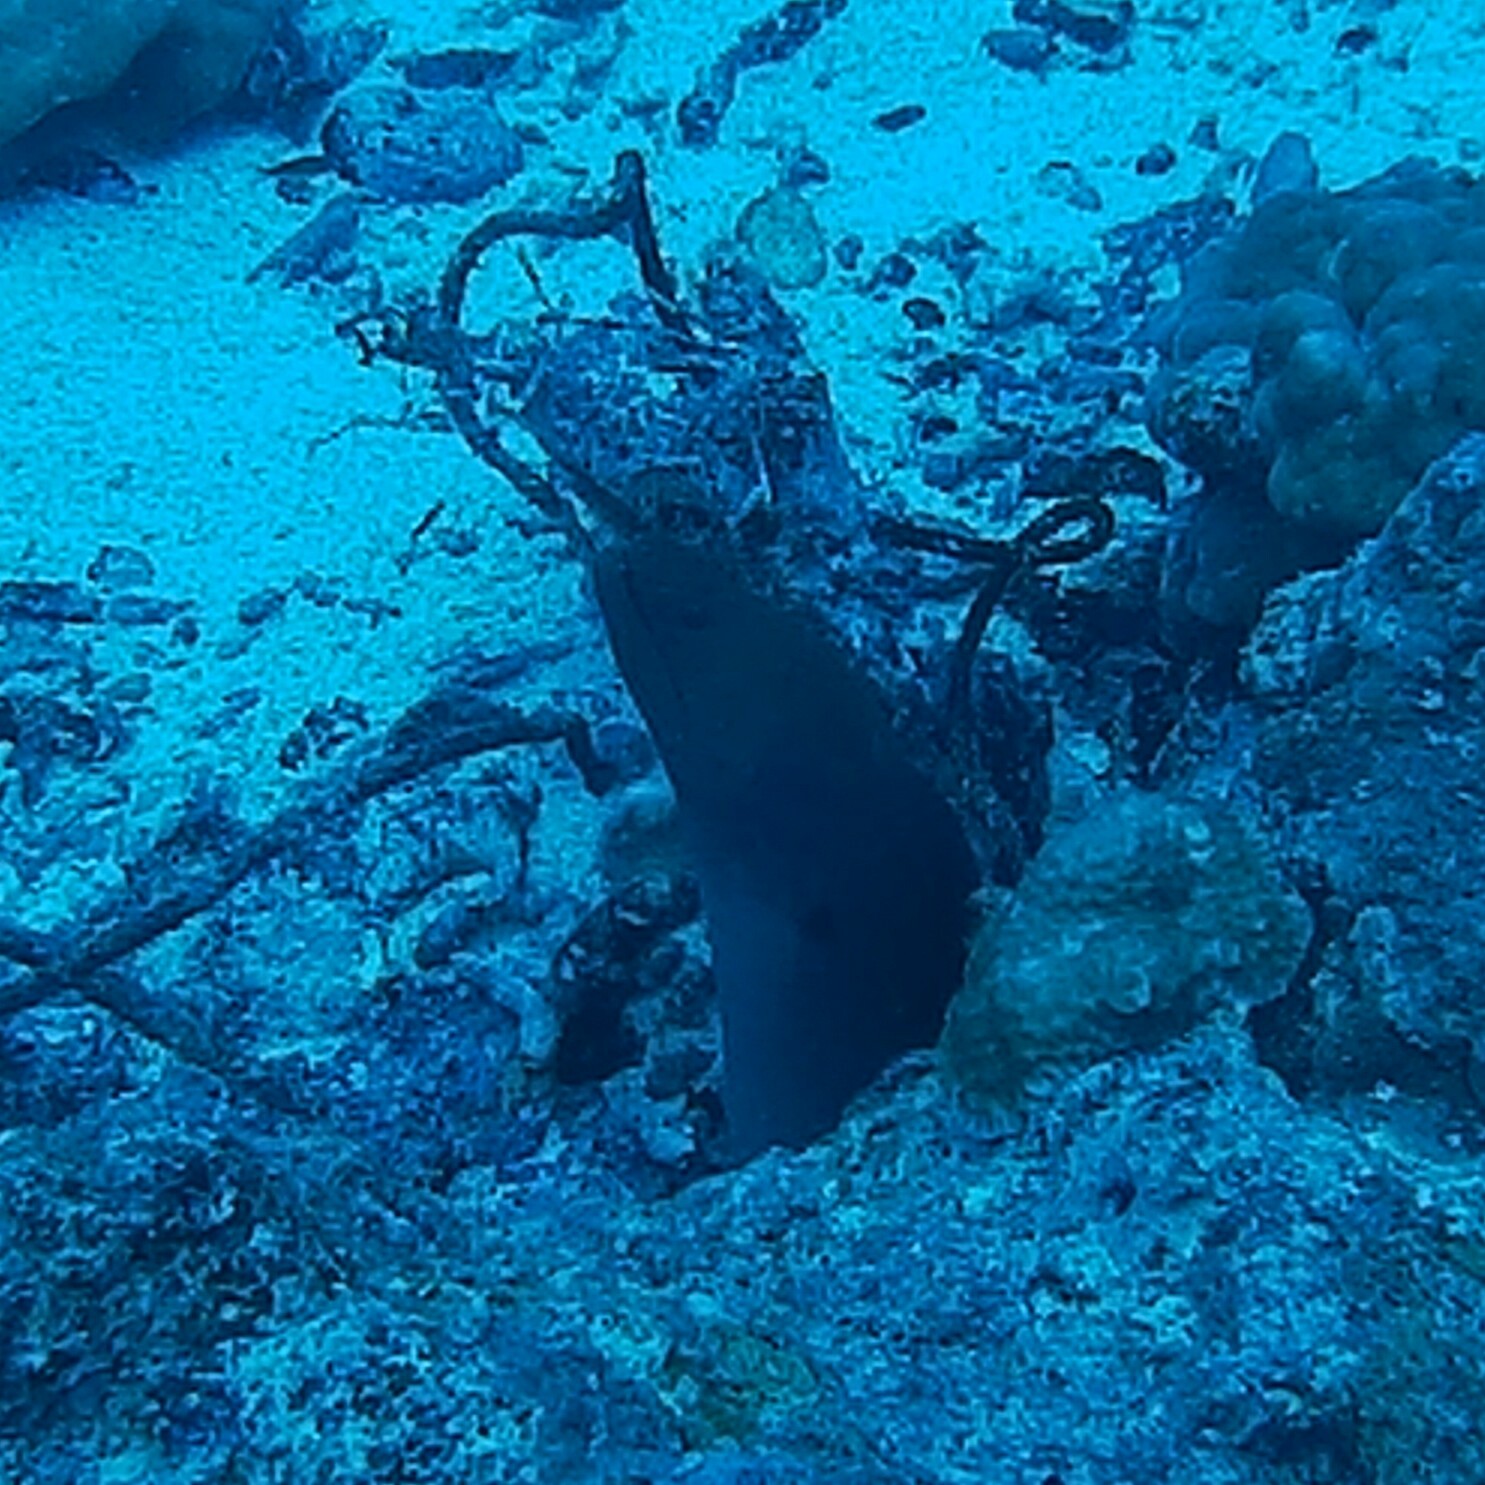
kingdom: Animalia
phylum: Chordata
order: Anguilliformes
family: Muraenidae
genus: Gymnothorax
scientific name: Gymnothorax javanicus
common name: Giant moray
